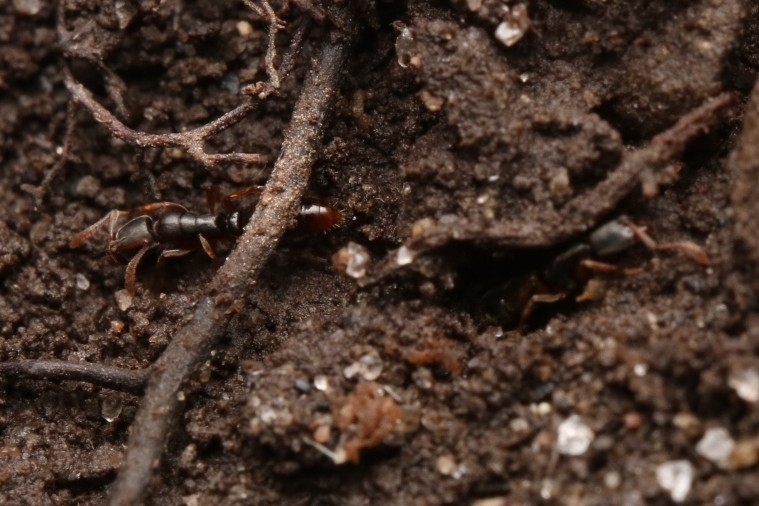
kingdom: Animalia
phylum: Arthropoda
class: Insecta
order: Hymenoptera
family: Formicidae
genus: Ponera
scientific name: Ponera pennsylvanica
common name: Pennsylvania ponera
